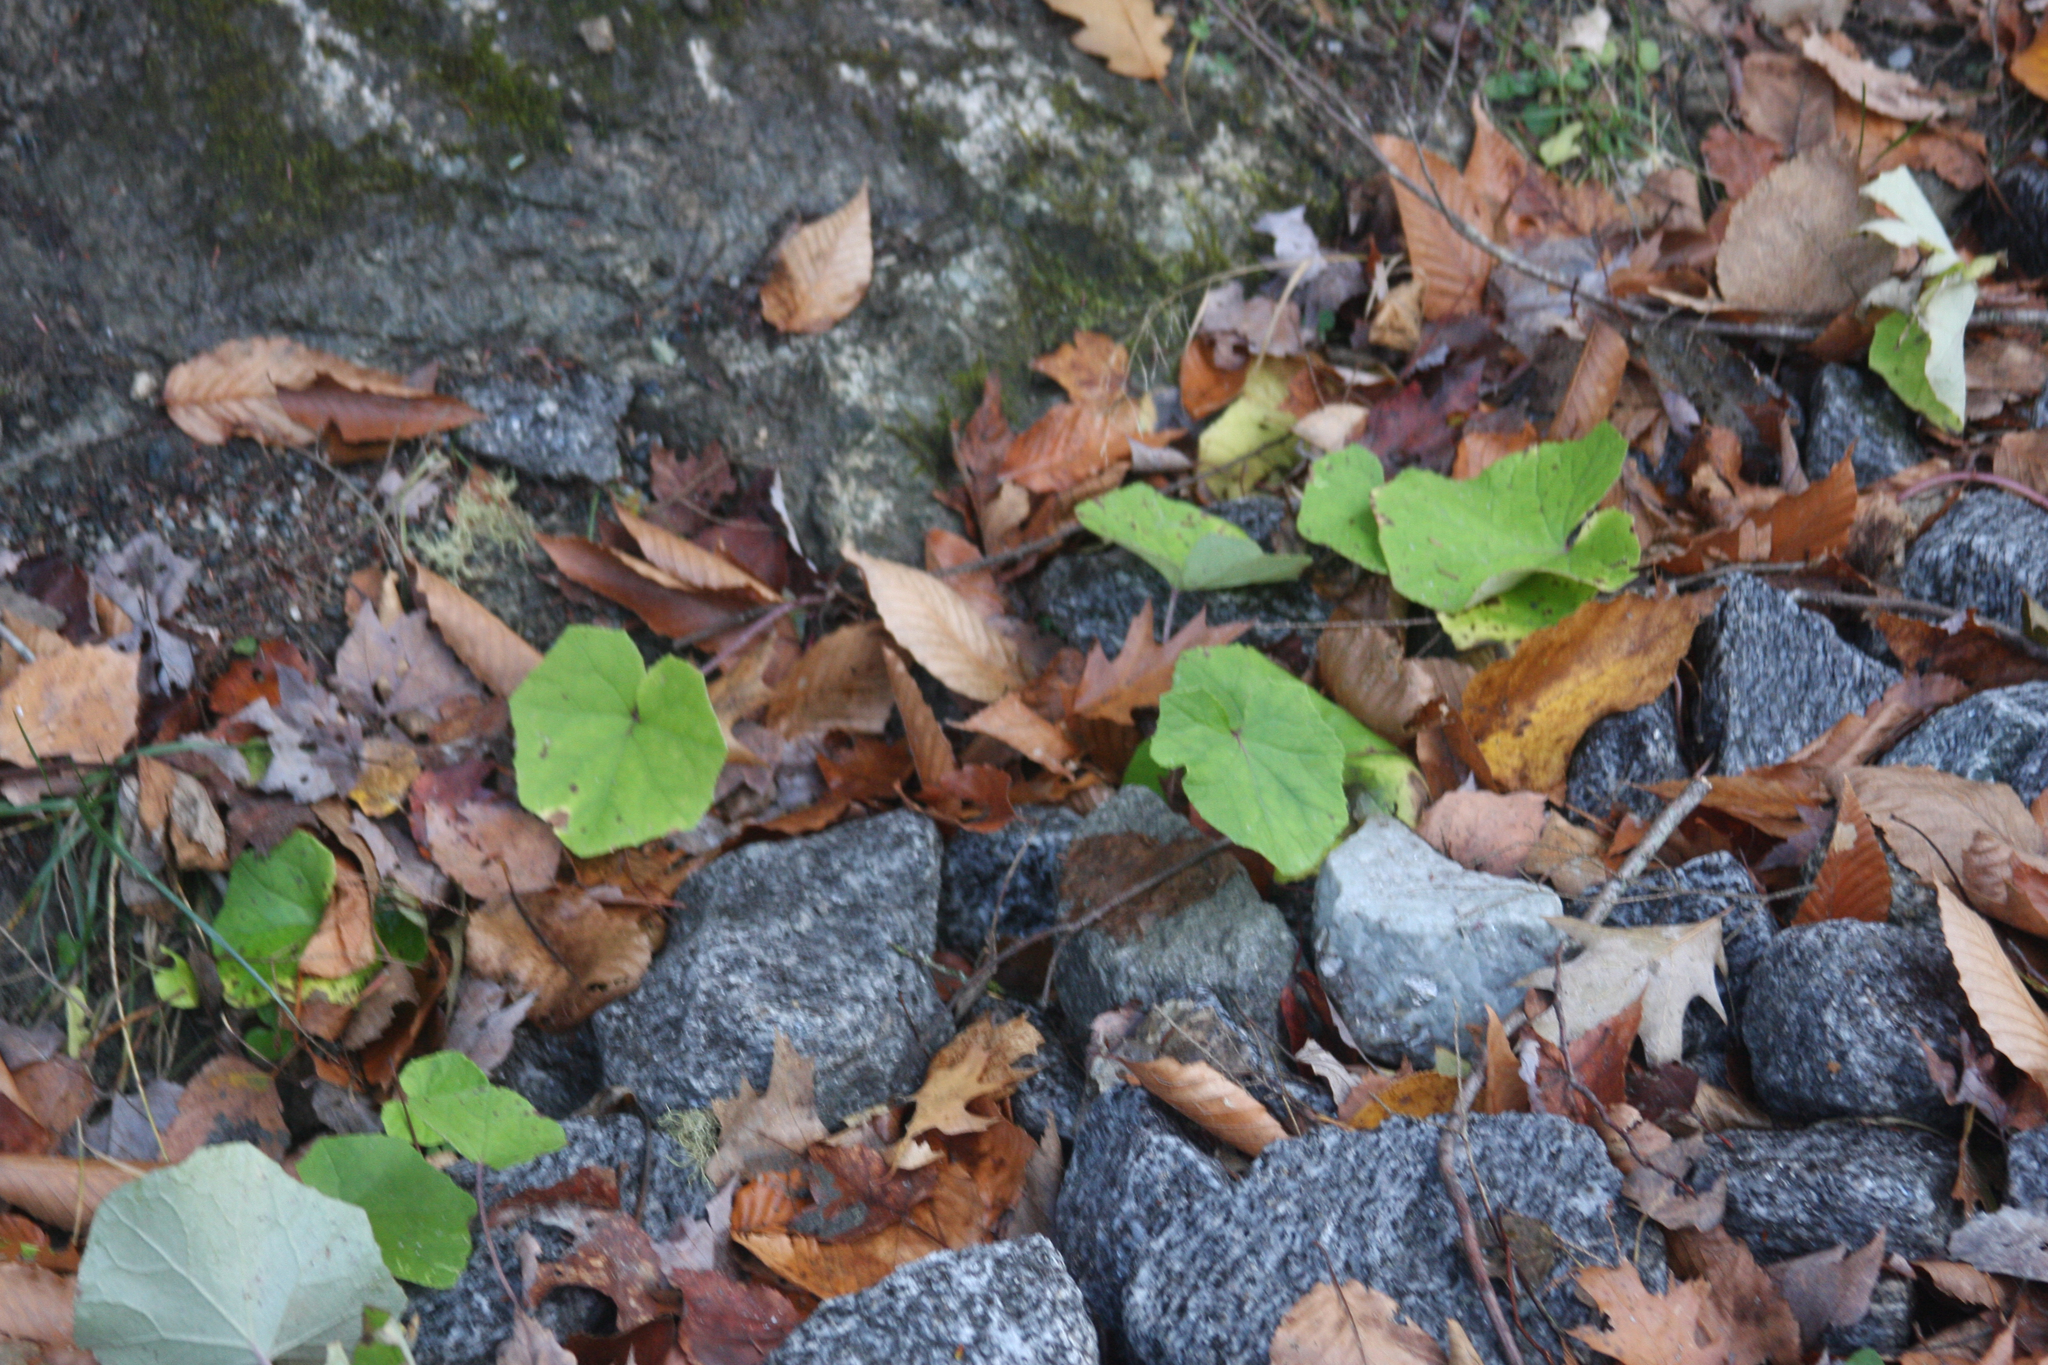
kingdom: Plantae
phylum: Tracheophyta
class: Magnoliopsida
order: Asterales
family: Asteraceae
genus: Tussilago
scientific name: Tussilago farfara
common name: Coltsfoot
